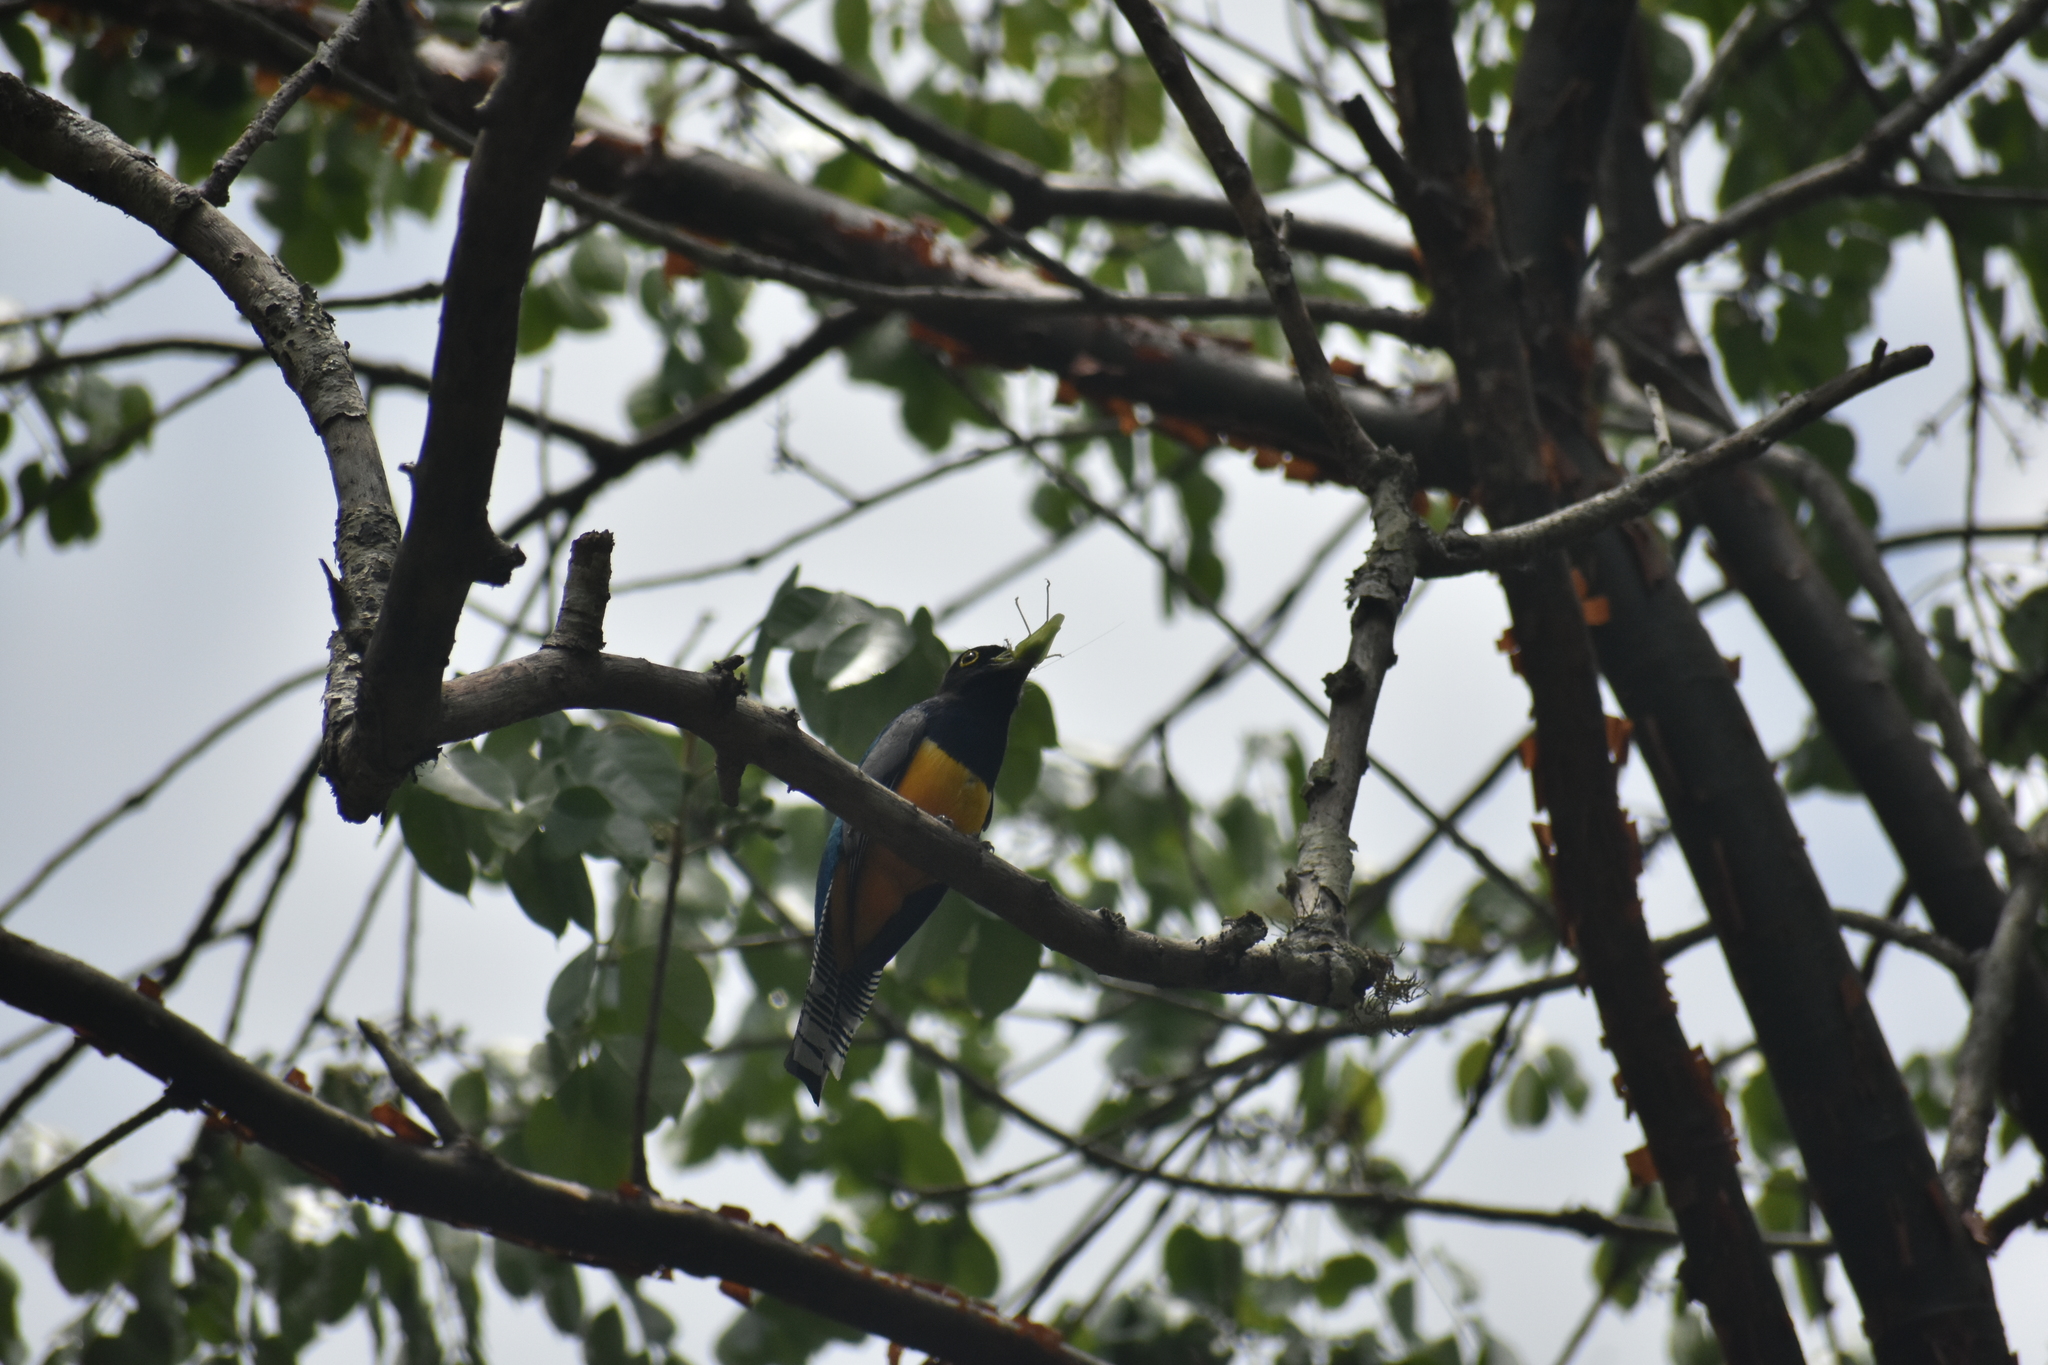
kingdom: Animalia
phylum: Chordata
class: Aves
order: Trogoniformes
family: Trogonidae
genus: Trogon
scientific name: Trogon caligatus
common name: Gartered trogon
